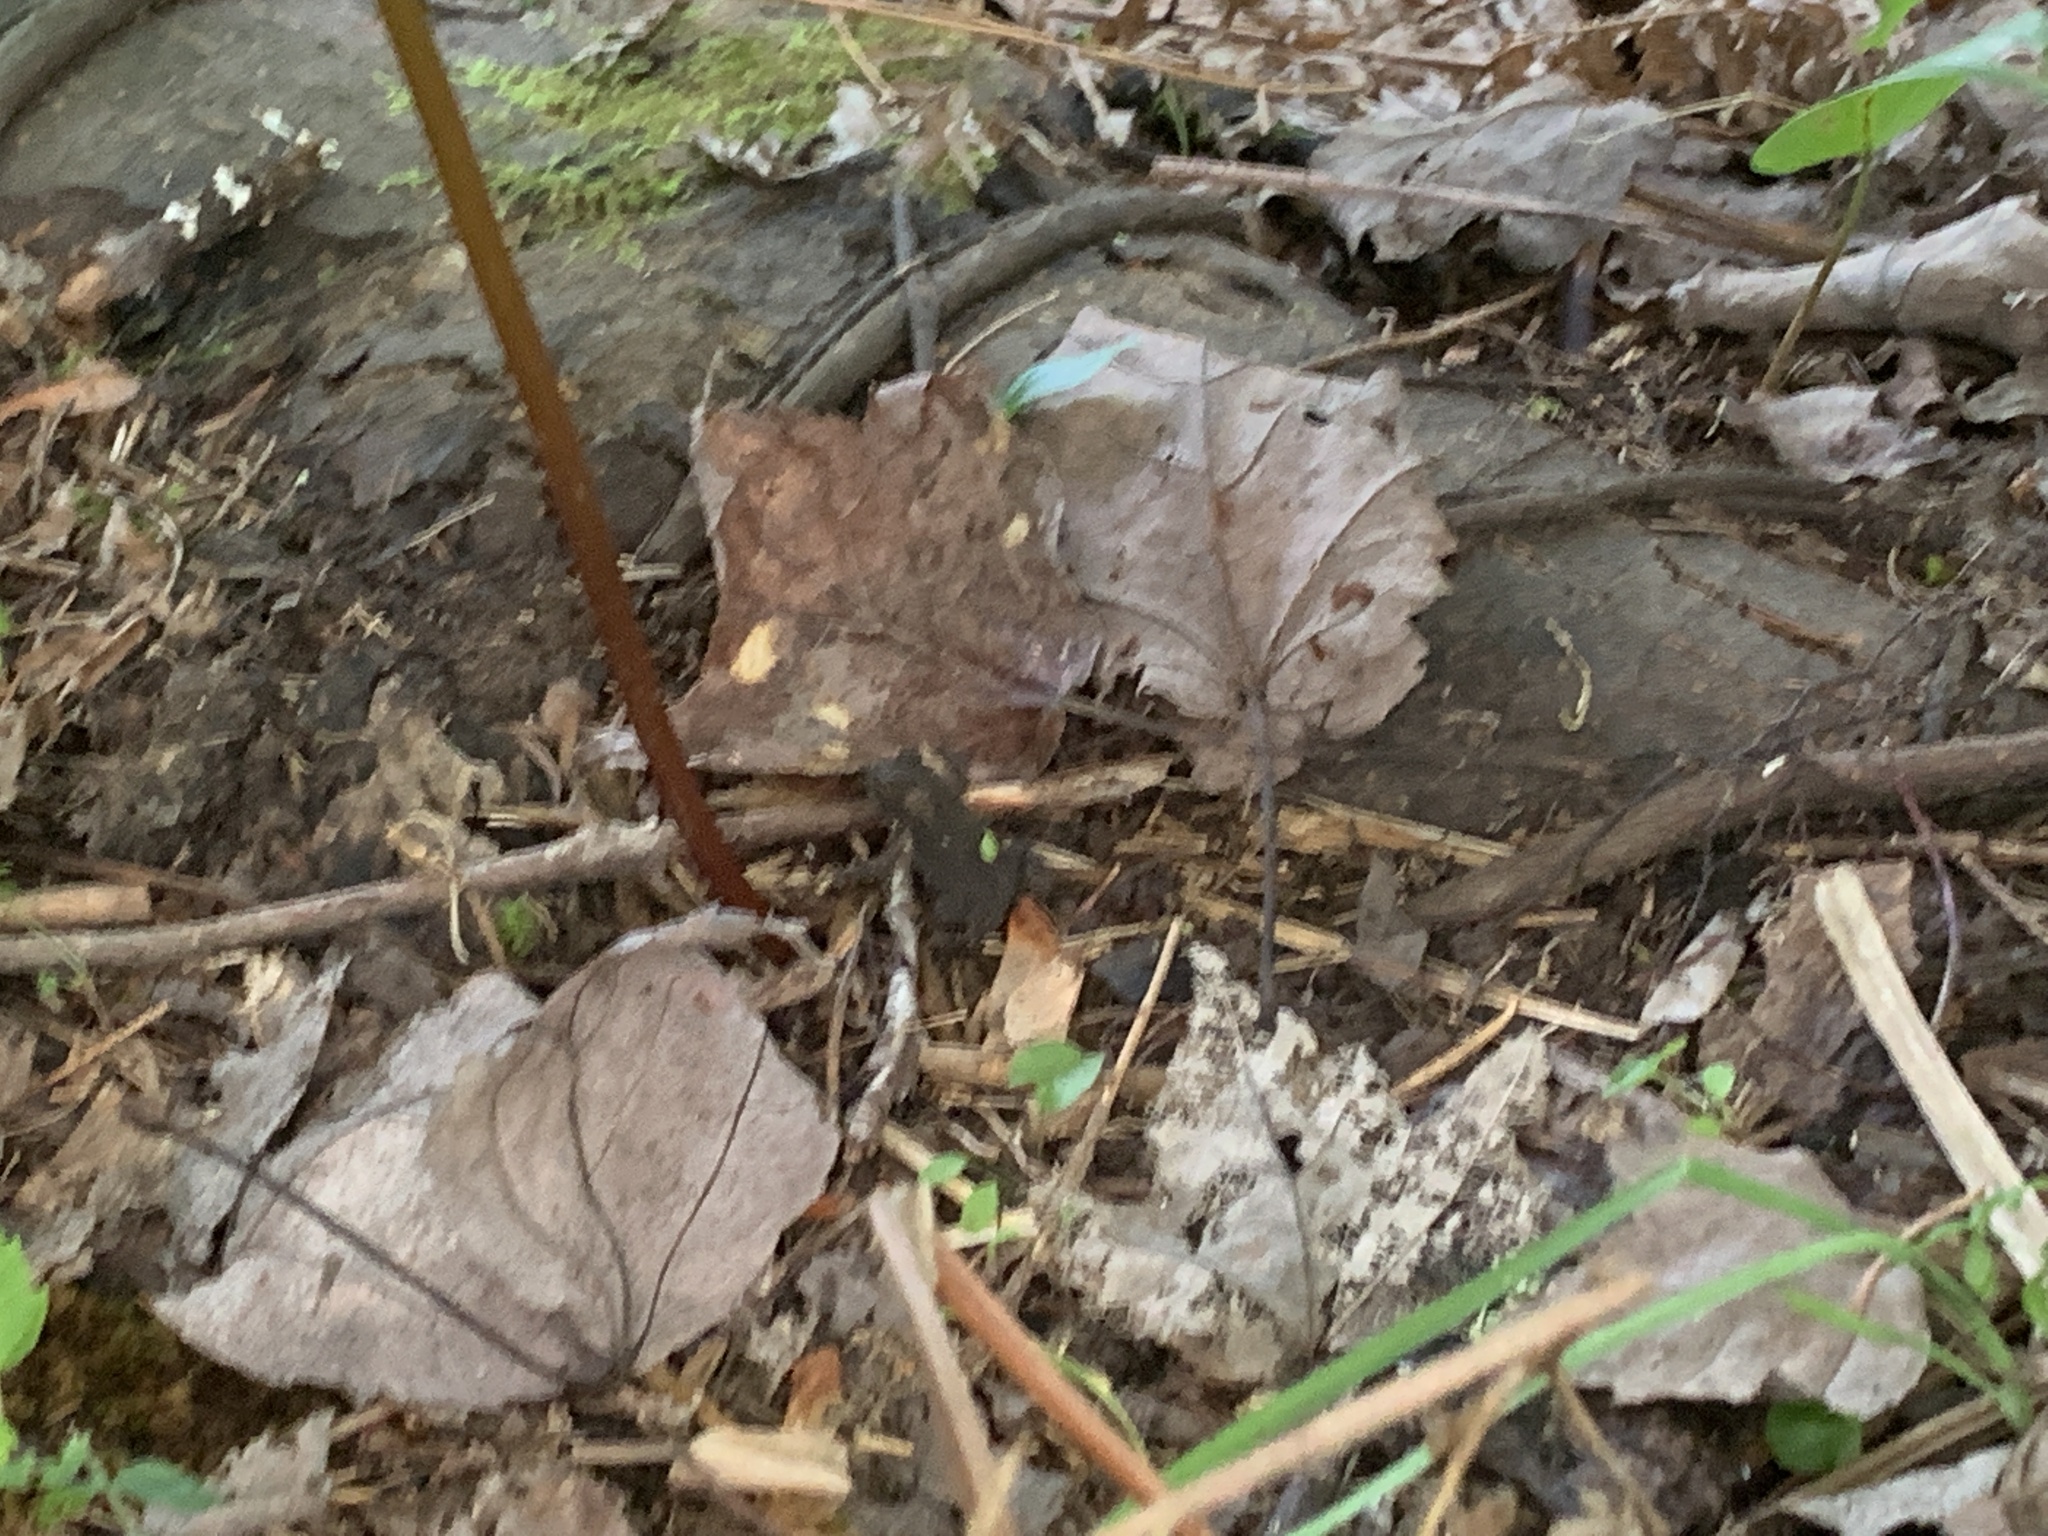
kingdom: Animalia
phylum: Chordata
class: Amphibia
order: Anura
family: Bufonidae
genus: Anaxyrus
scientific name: Anaxyrus americanus
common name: American toad
